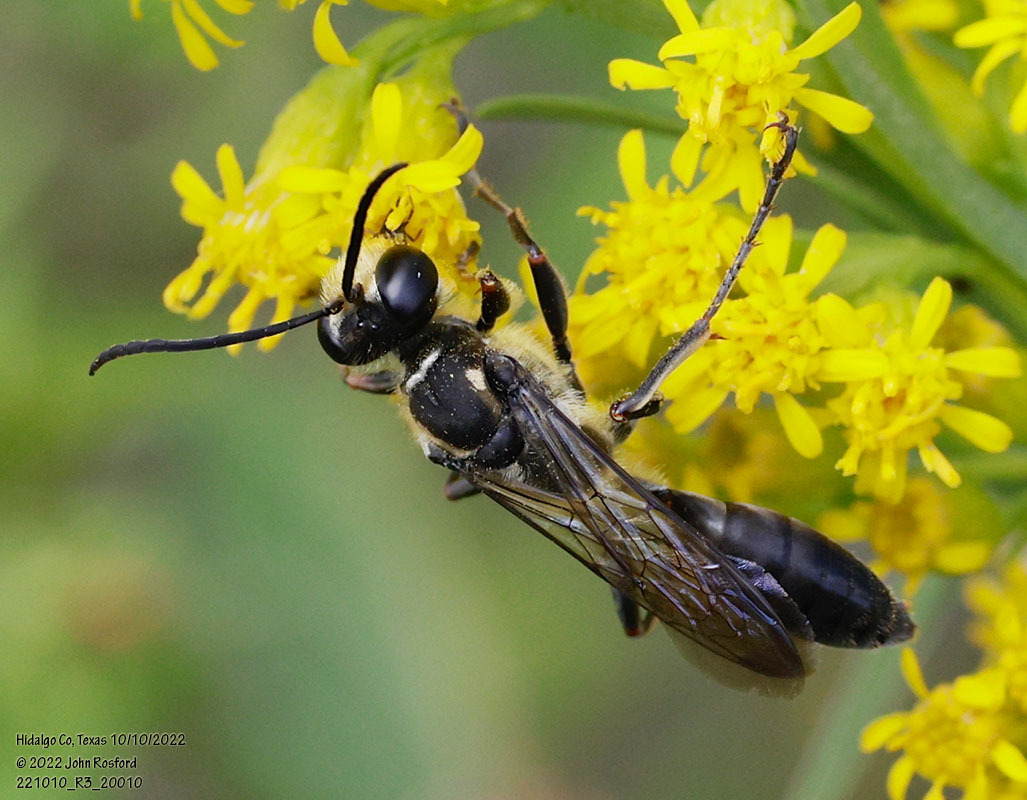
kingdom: Animalia
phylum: Arthropoda
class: Insecta
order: Hymenoptera
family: Sphecidae
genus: Sphex
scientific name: Sphex dorsalis
